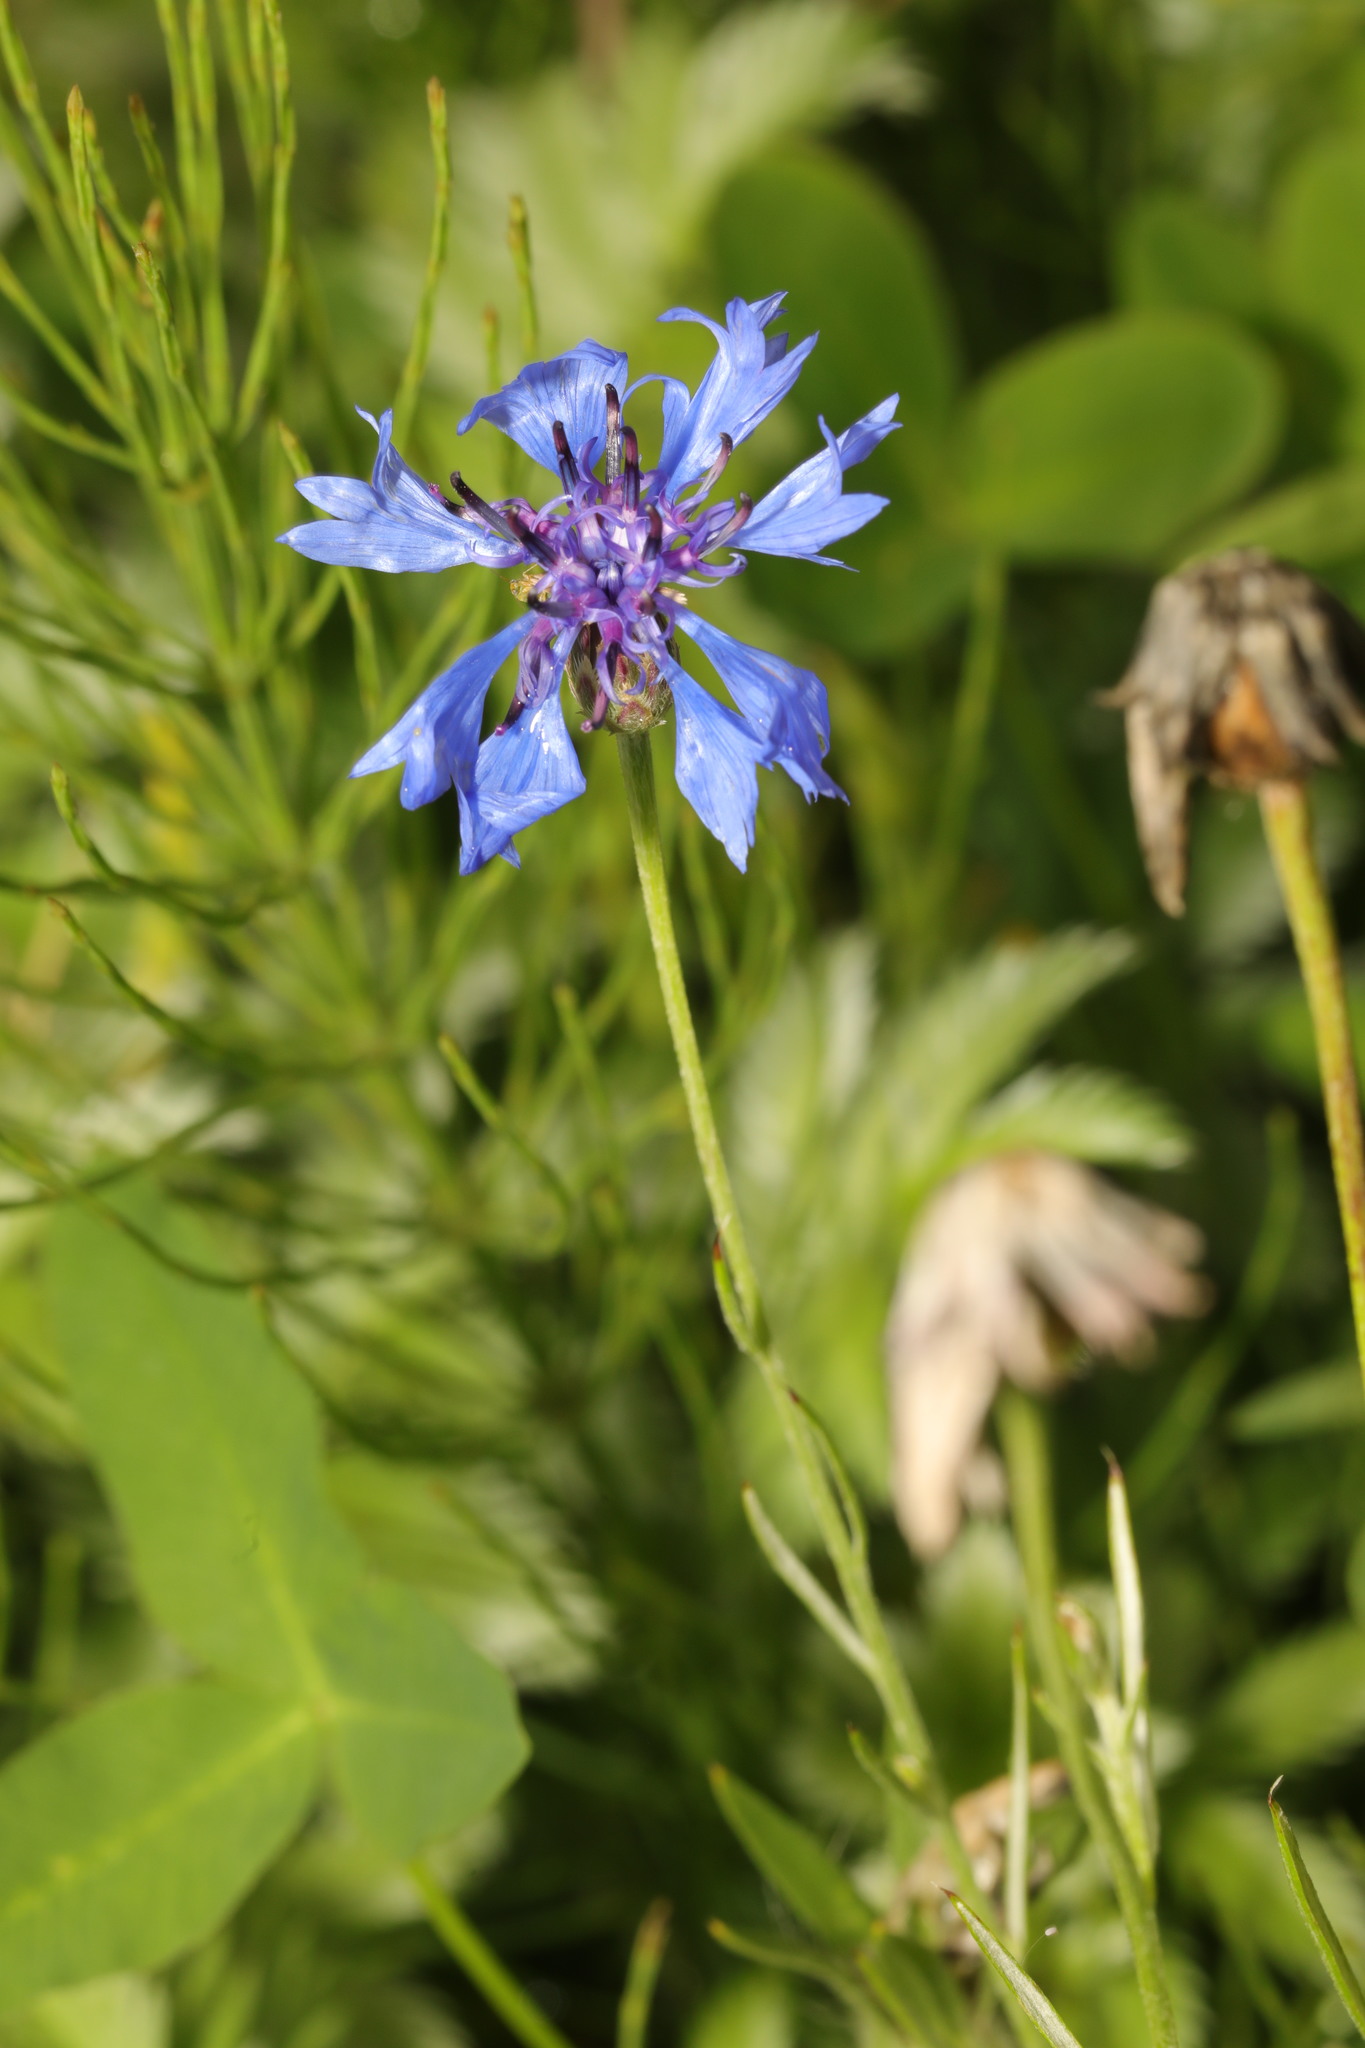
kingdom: Plantae
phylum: Tracheophyta
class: Magnoliopsida
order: Asterales
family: Asteraceae
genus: Centaurea
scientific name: Centaurea cyanus
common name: Cornflower
